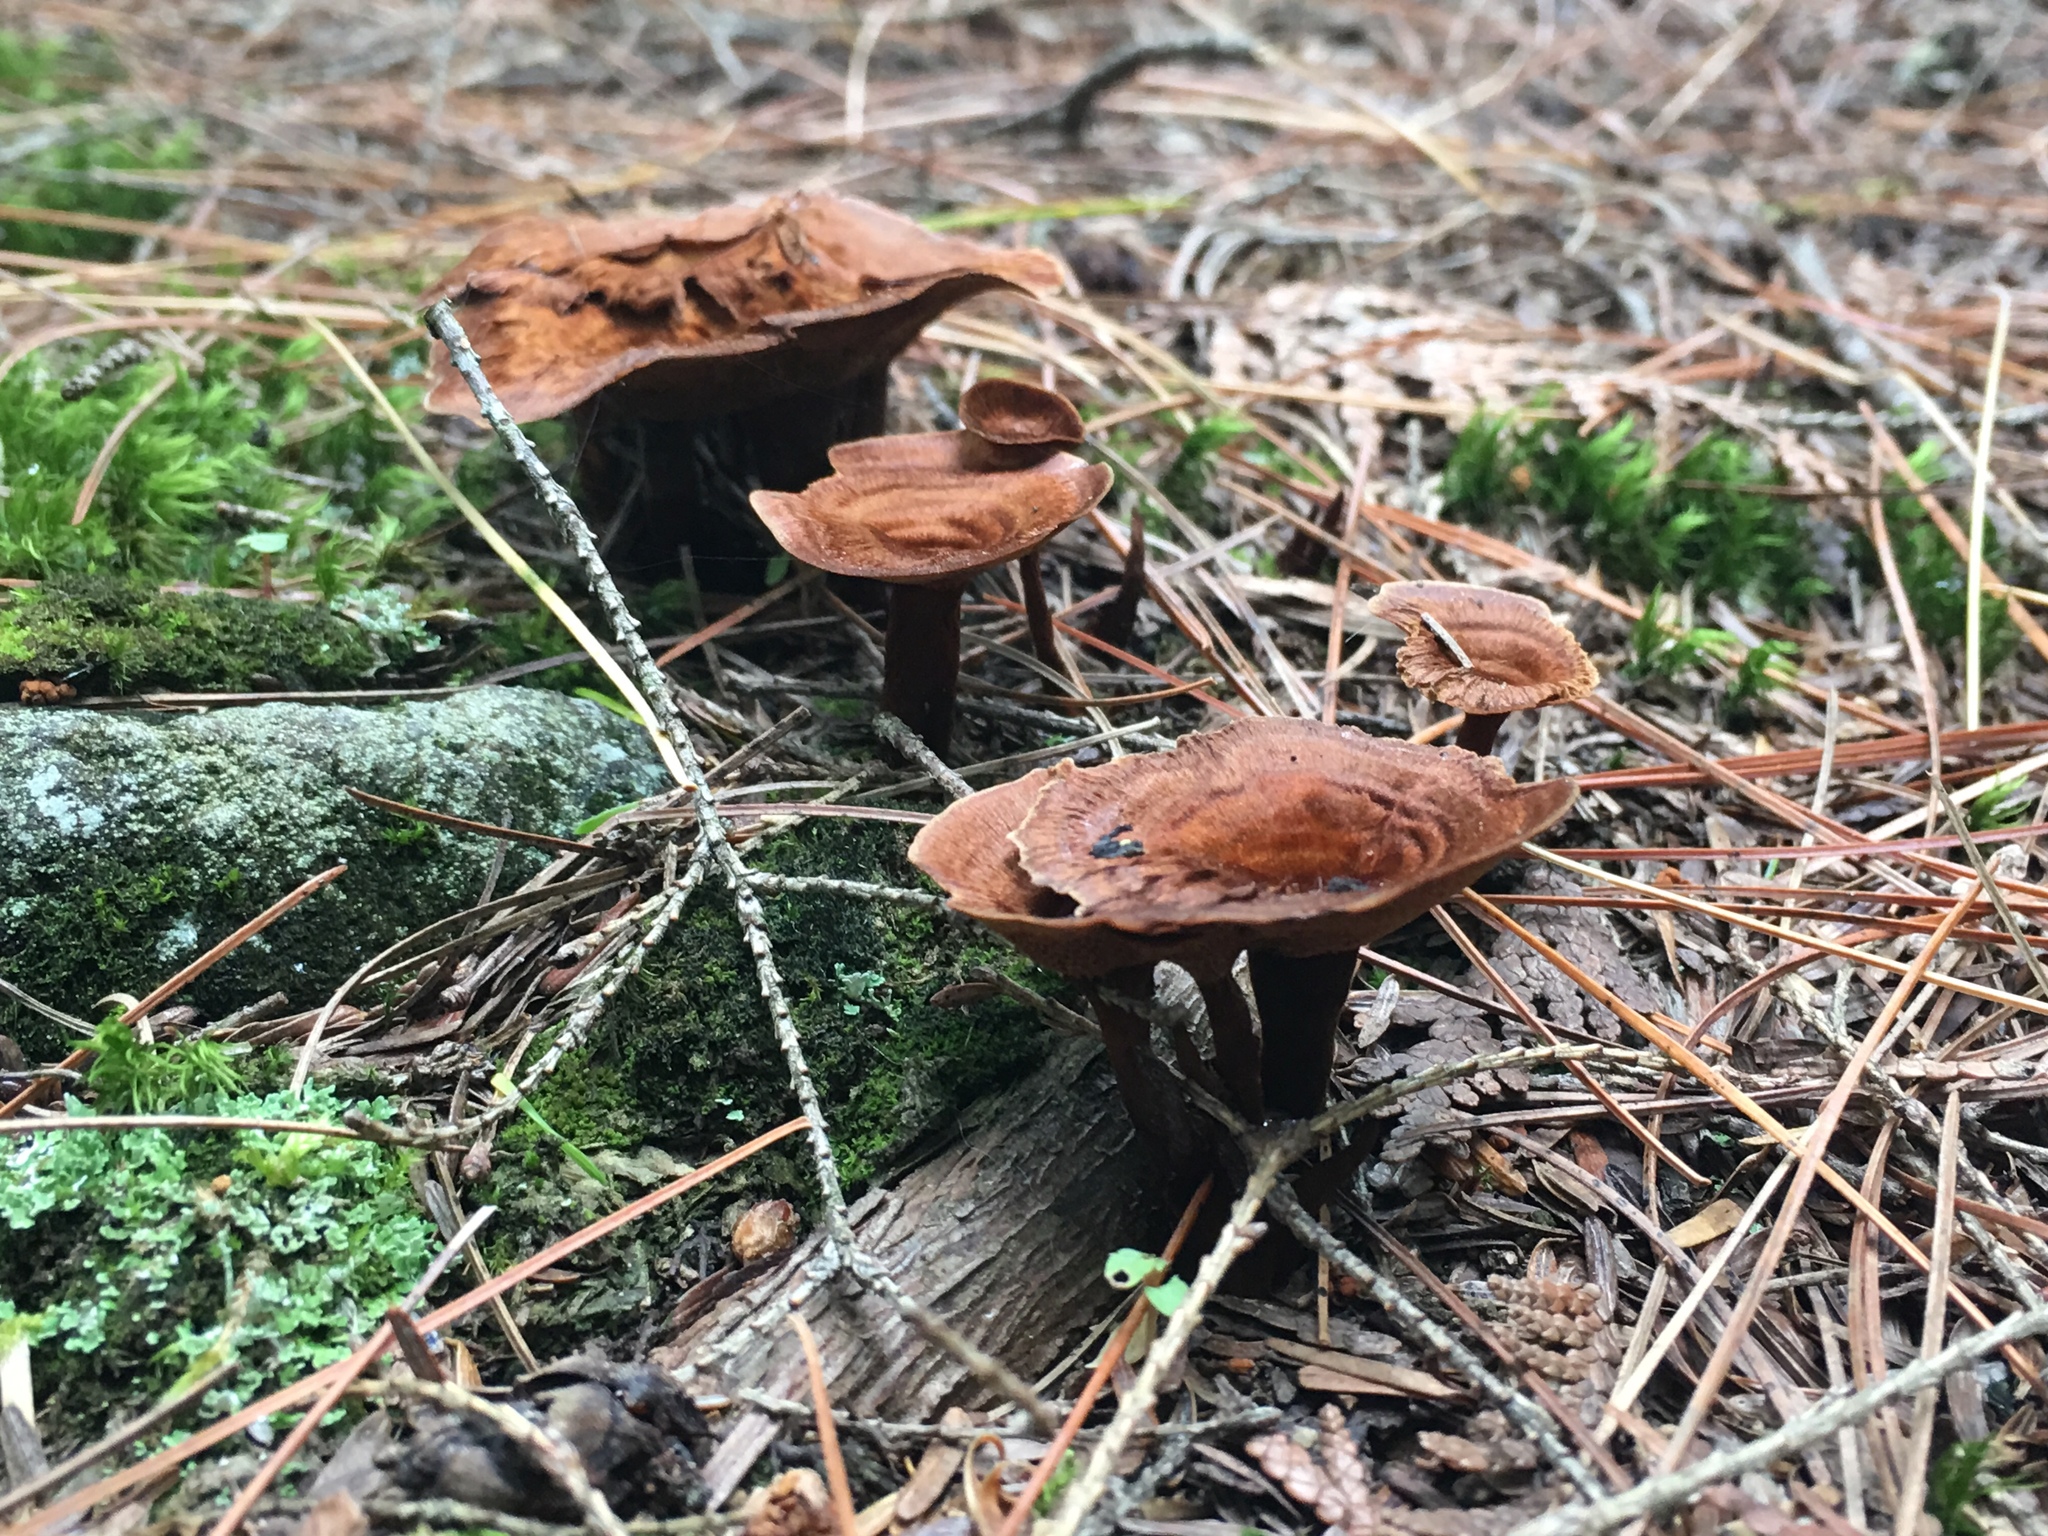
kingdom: Fungi
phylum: Basidiomycota
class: Agaricomycetes
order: Hymenochaetales
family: Hymenochaetaceae
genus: Coltricia
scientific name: Coltricia cinnamomea
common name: Shiny cinnamon polypore
